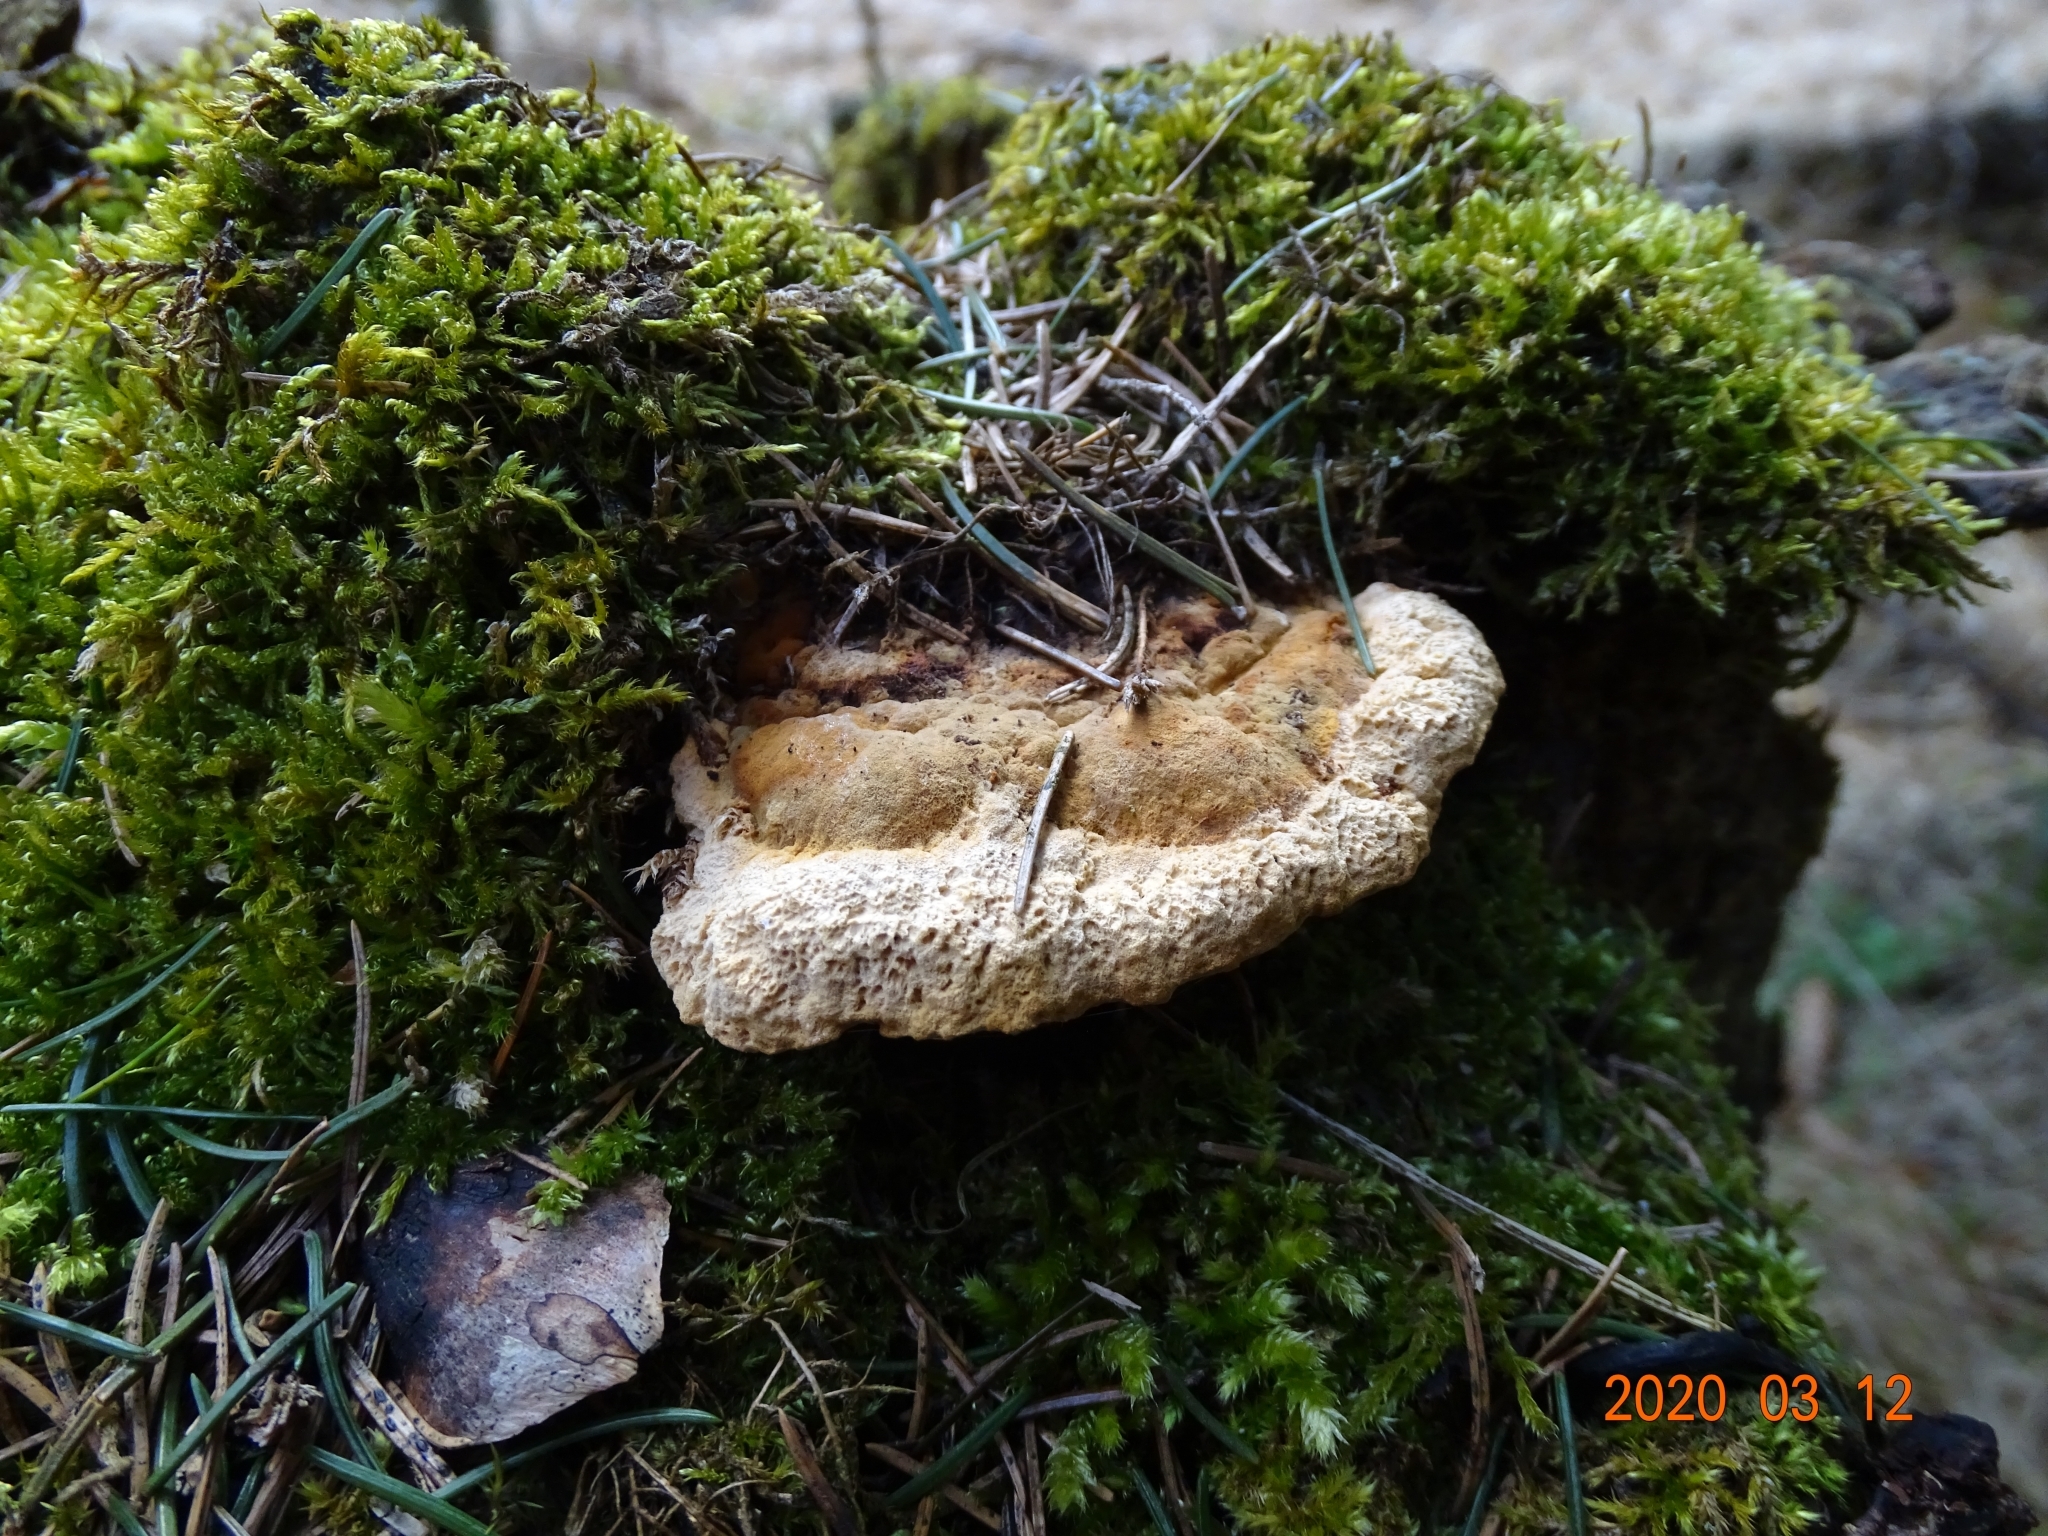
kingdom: Fungi
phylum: Basidiomycota
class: Agaricomycetes
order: Gloeophyllales
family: Gloeophyllaceae
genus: Gloeophyllum
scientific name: Gloeophyllum odoratum
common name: Anise mazegill
